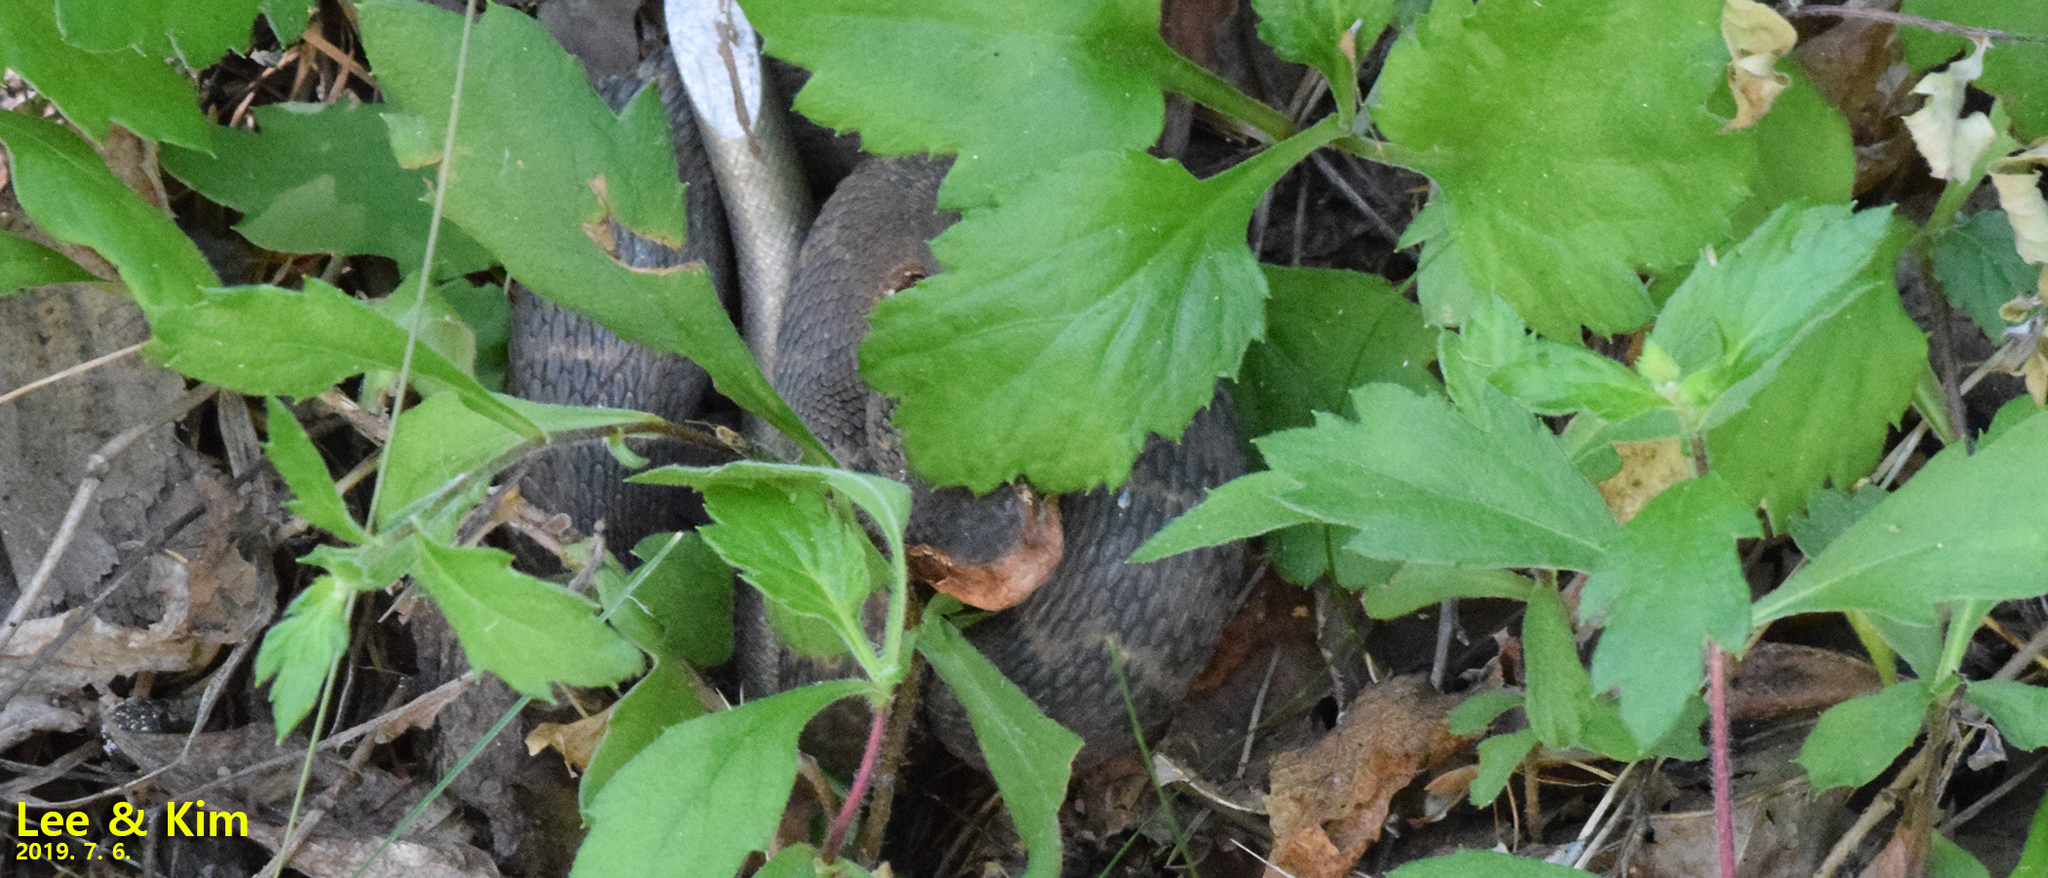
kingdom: Animalia
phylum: Chordata
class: Squamata
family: Viperidae
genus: Gloydius
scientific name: Gloydius ussuriensis
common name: Ussuri mamushi
